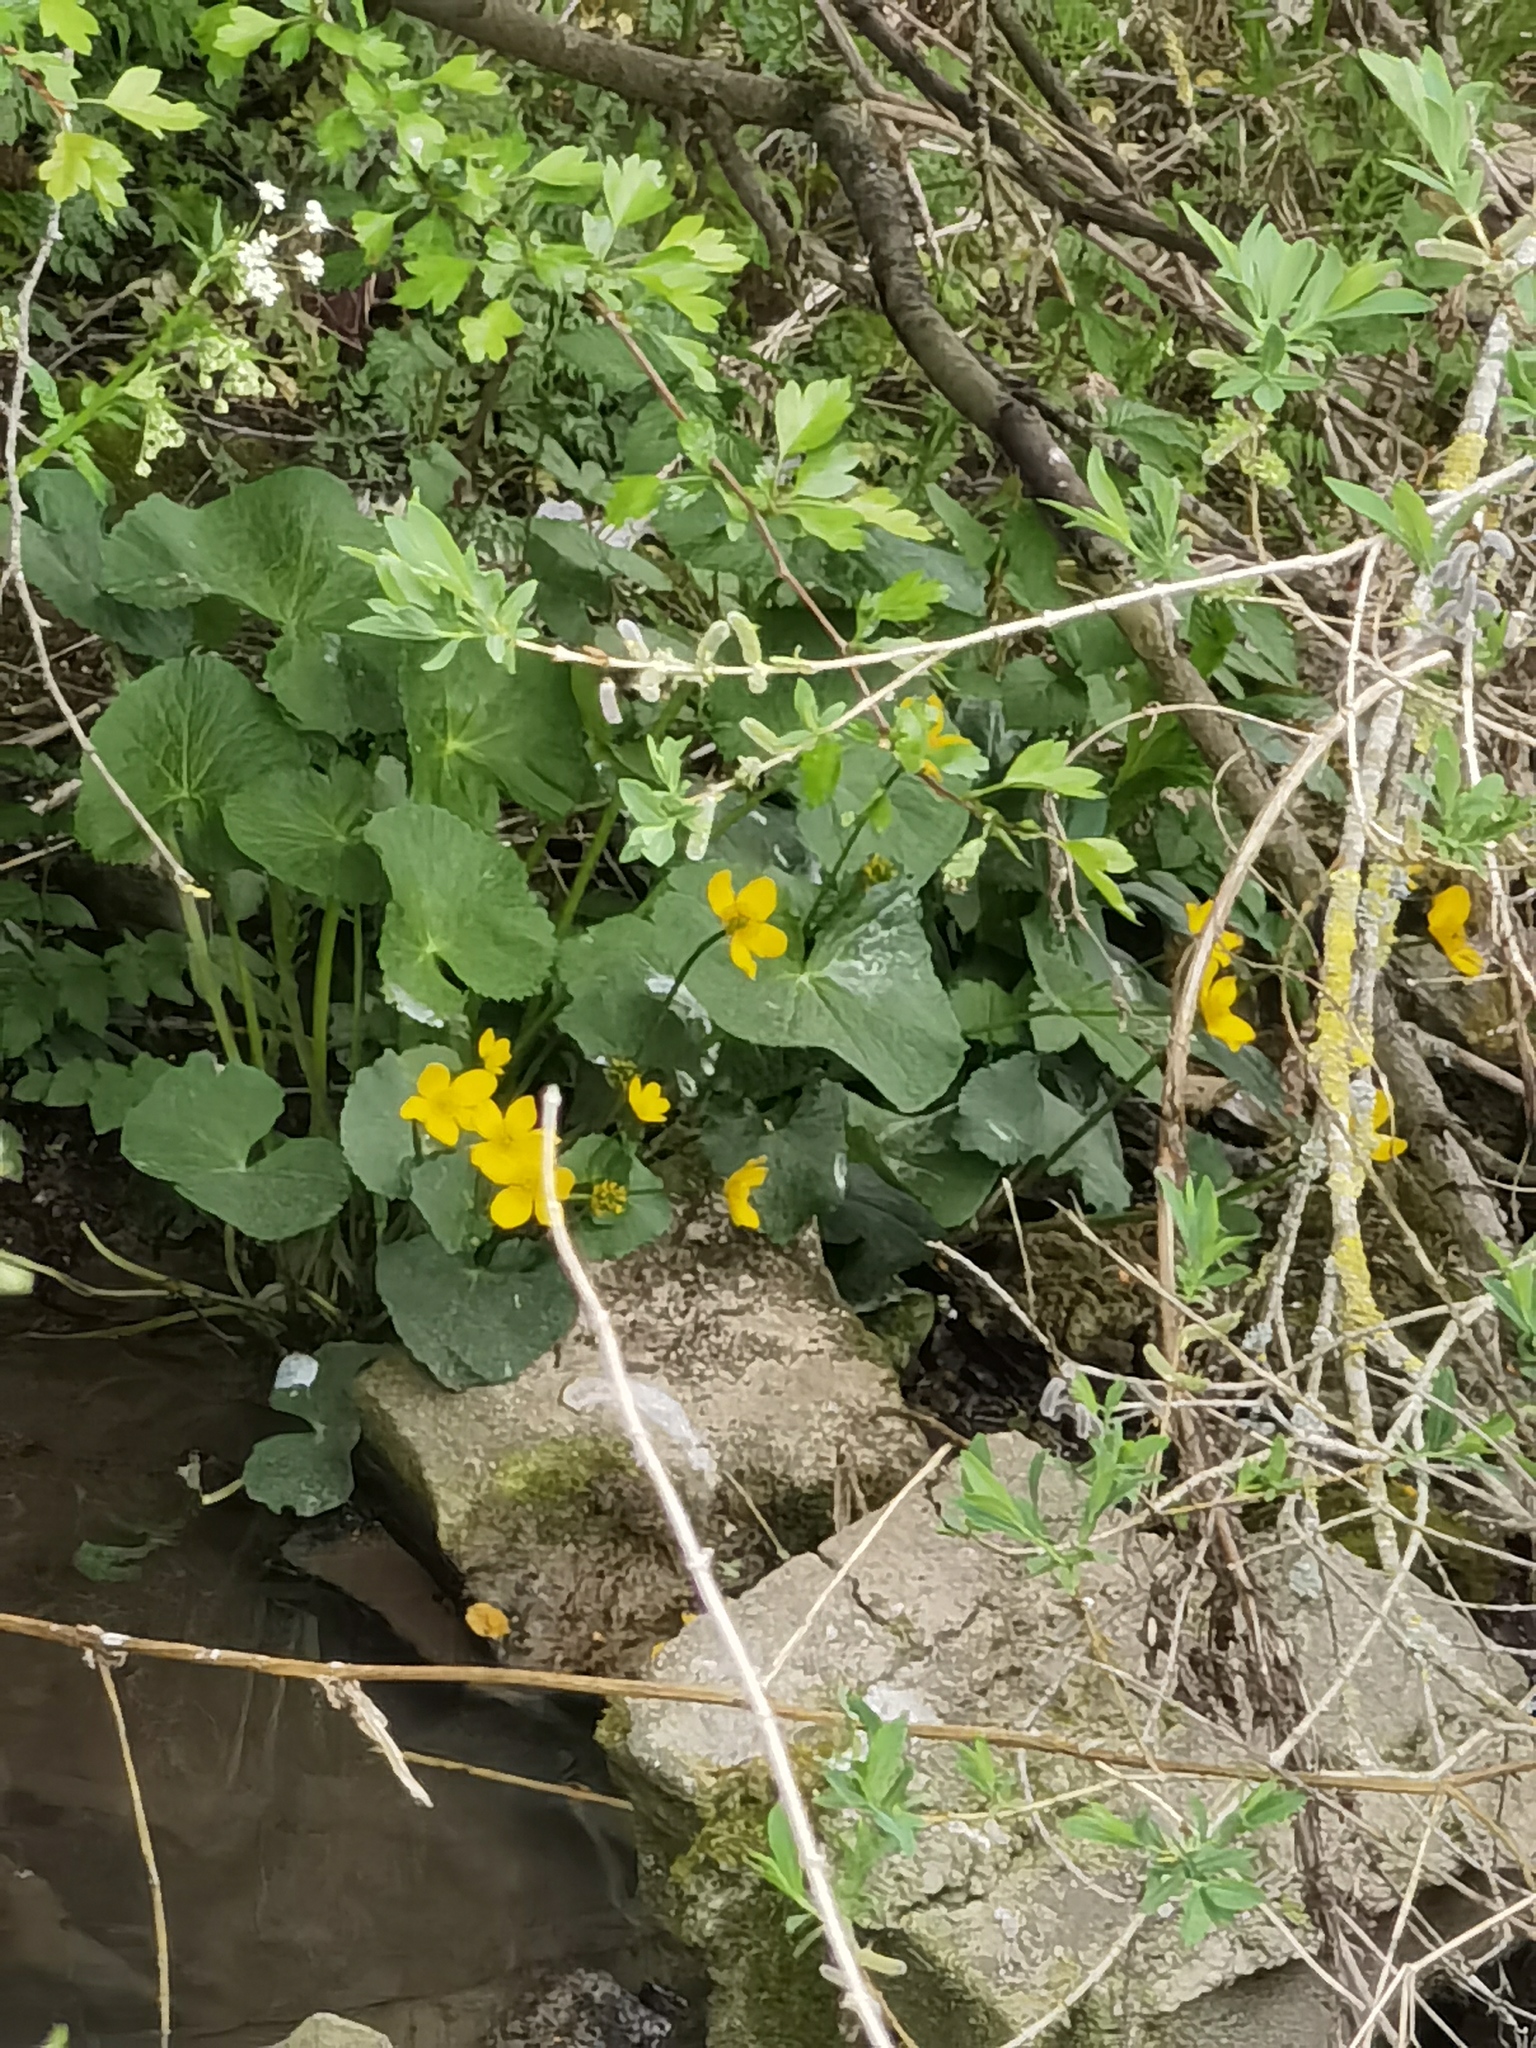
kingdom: Plantae
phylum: Tracheophyta
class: Magnoliopsida
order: Ranunculales
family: Ranunculaceae
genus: Caltha
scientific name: Caltha palustris
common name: Marsh marigold
